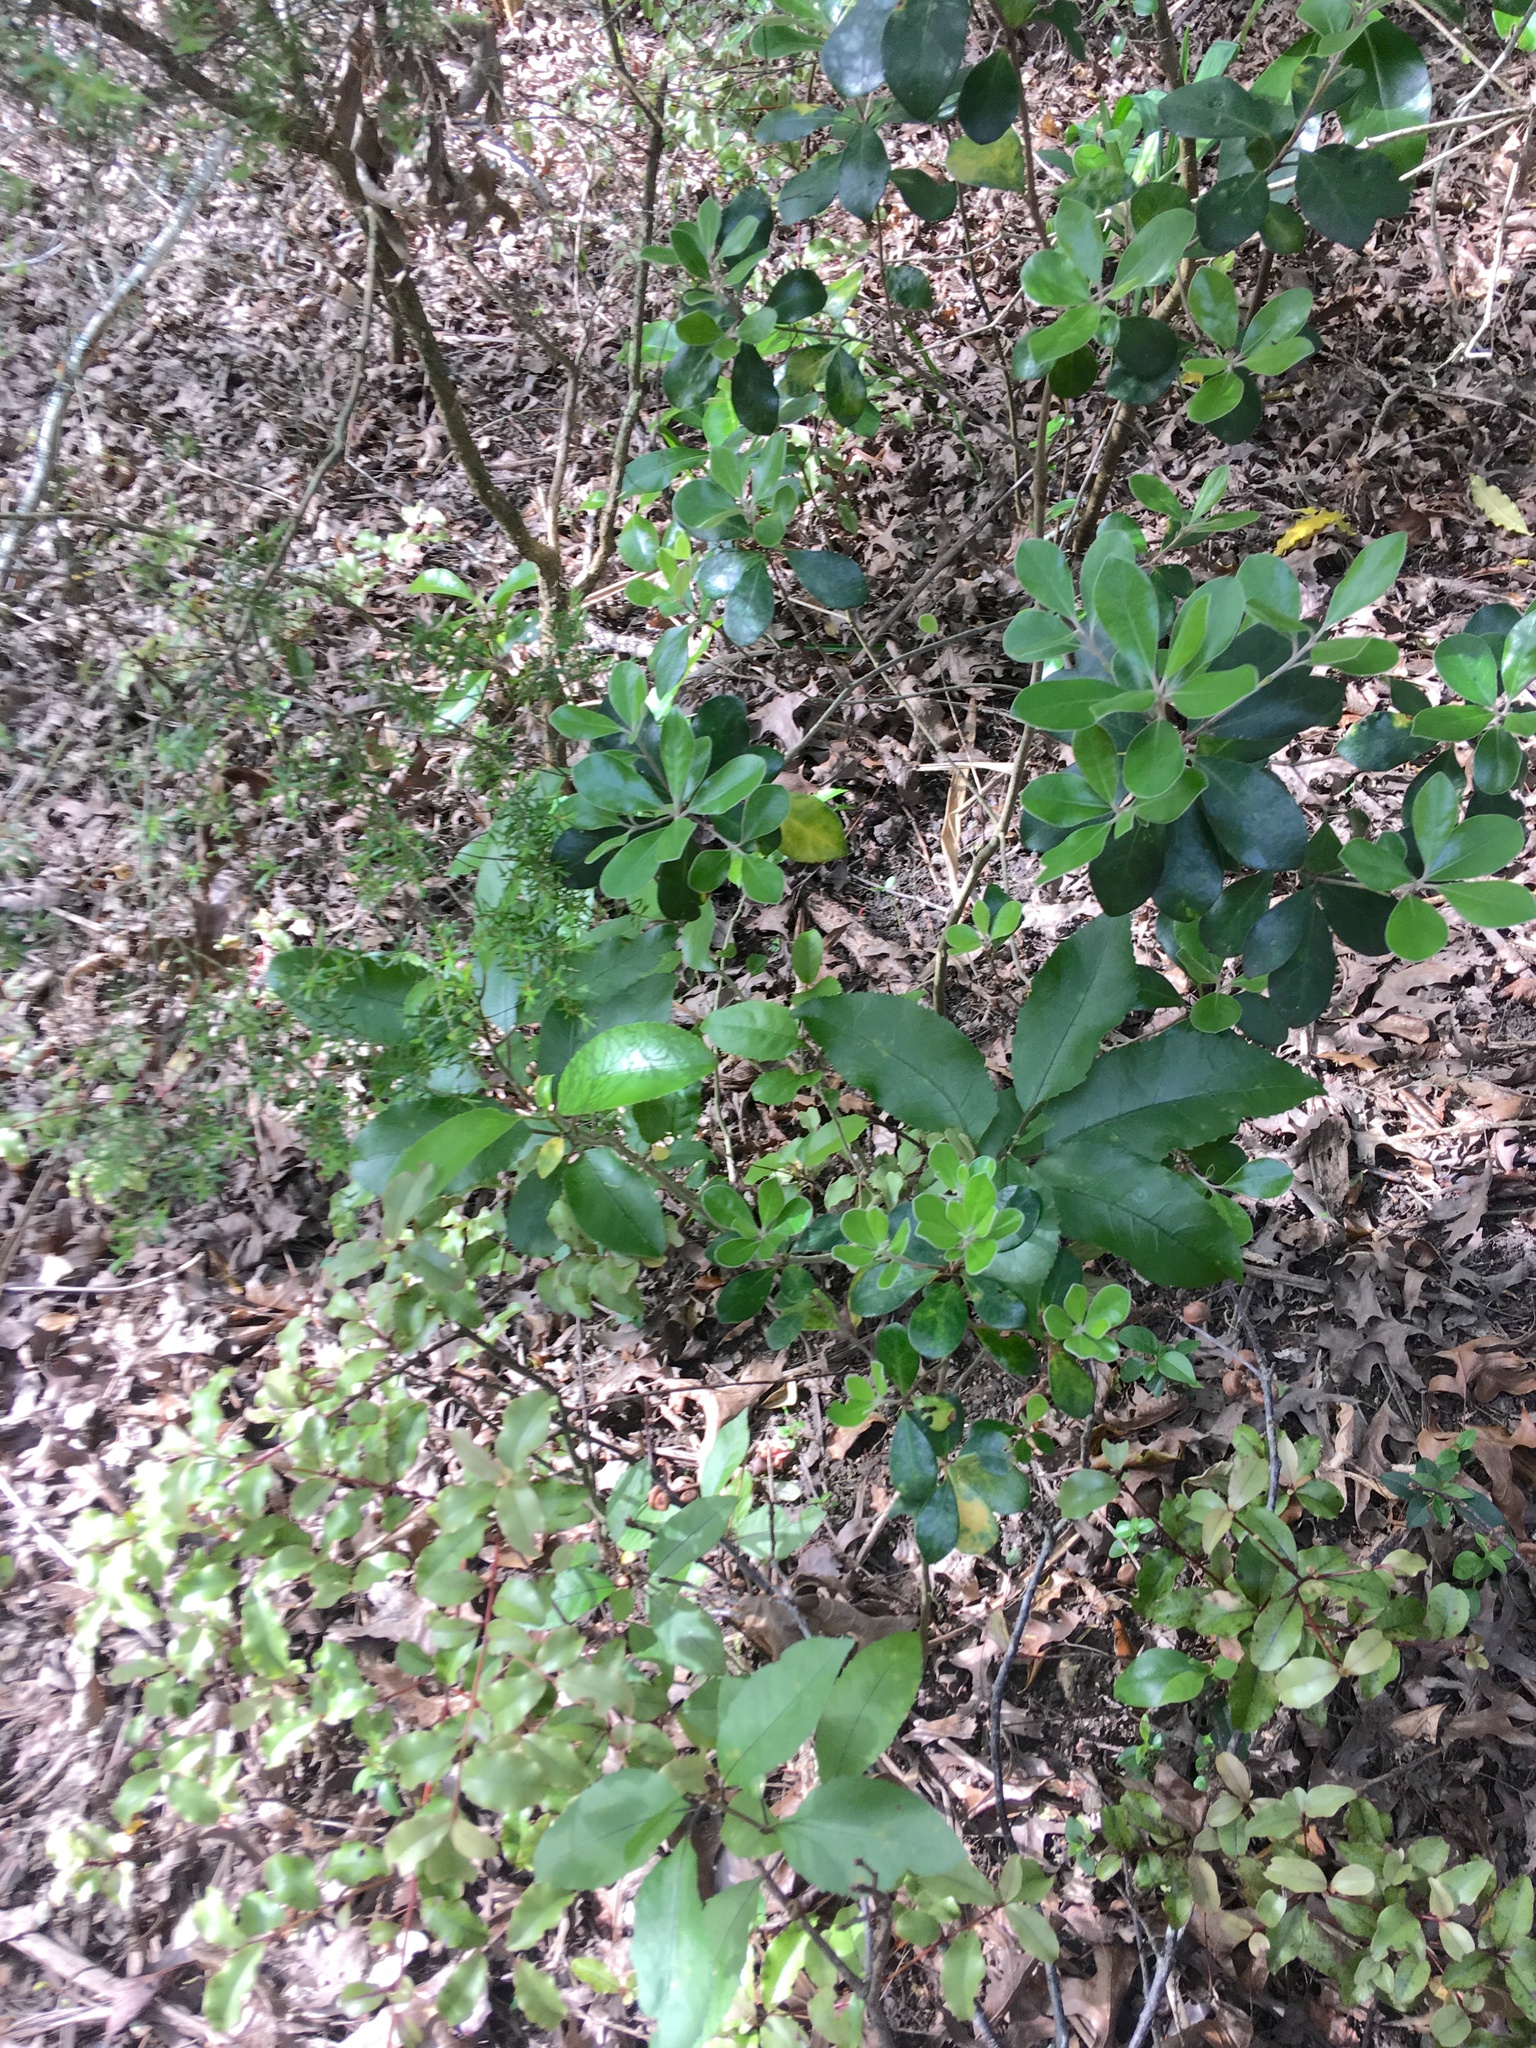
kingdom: Plantae
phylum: Tracheophyta
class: Magnoliopsida
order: Apiales
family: Pittosporaceae
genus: Pittosporum
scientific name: Pittosporum crassifolium
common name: Karo
